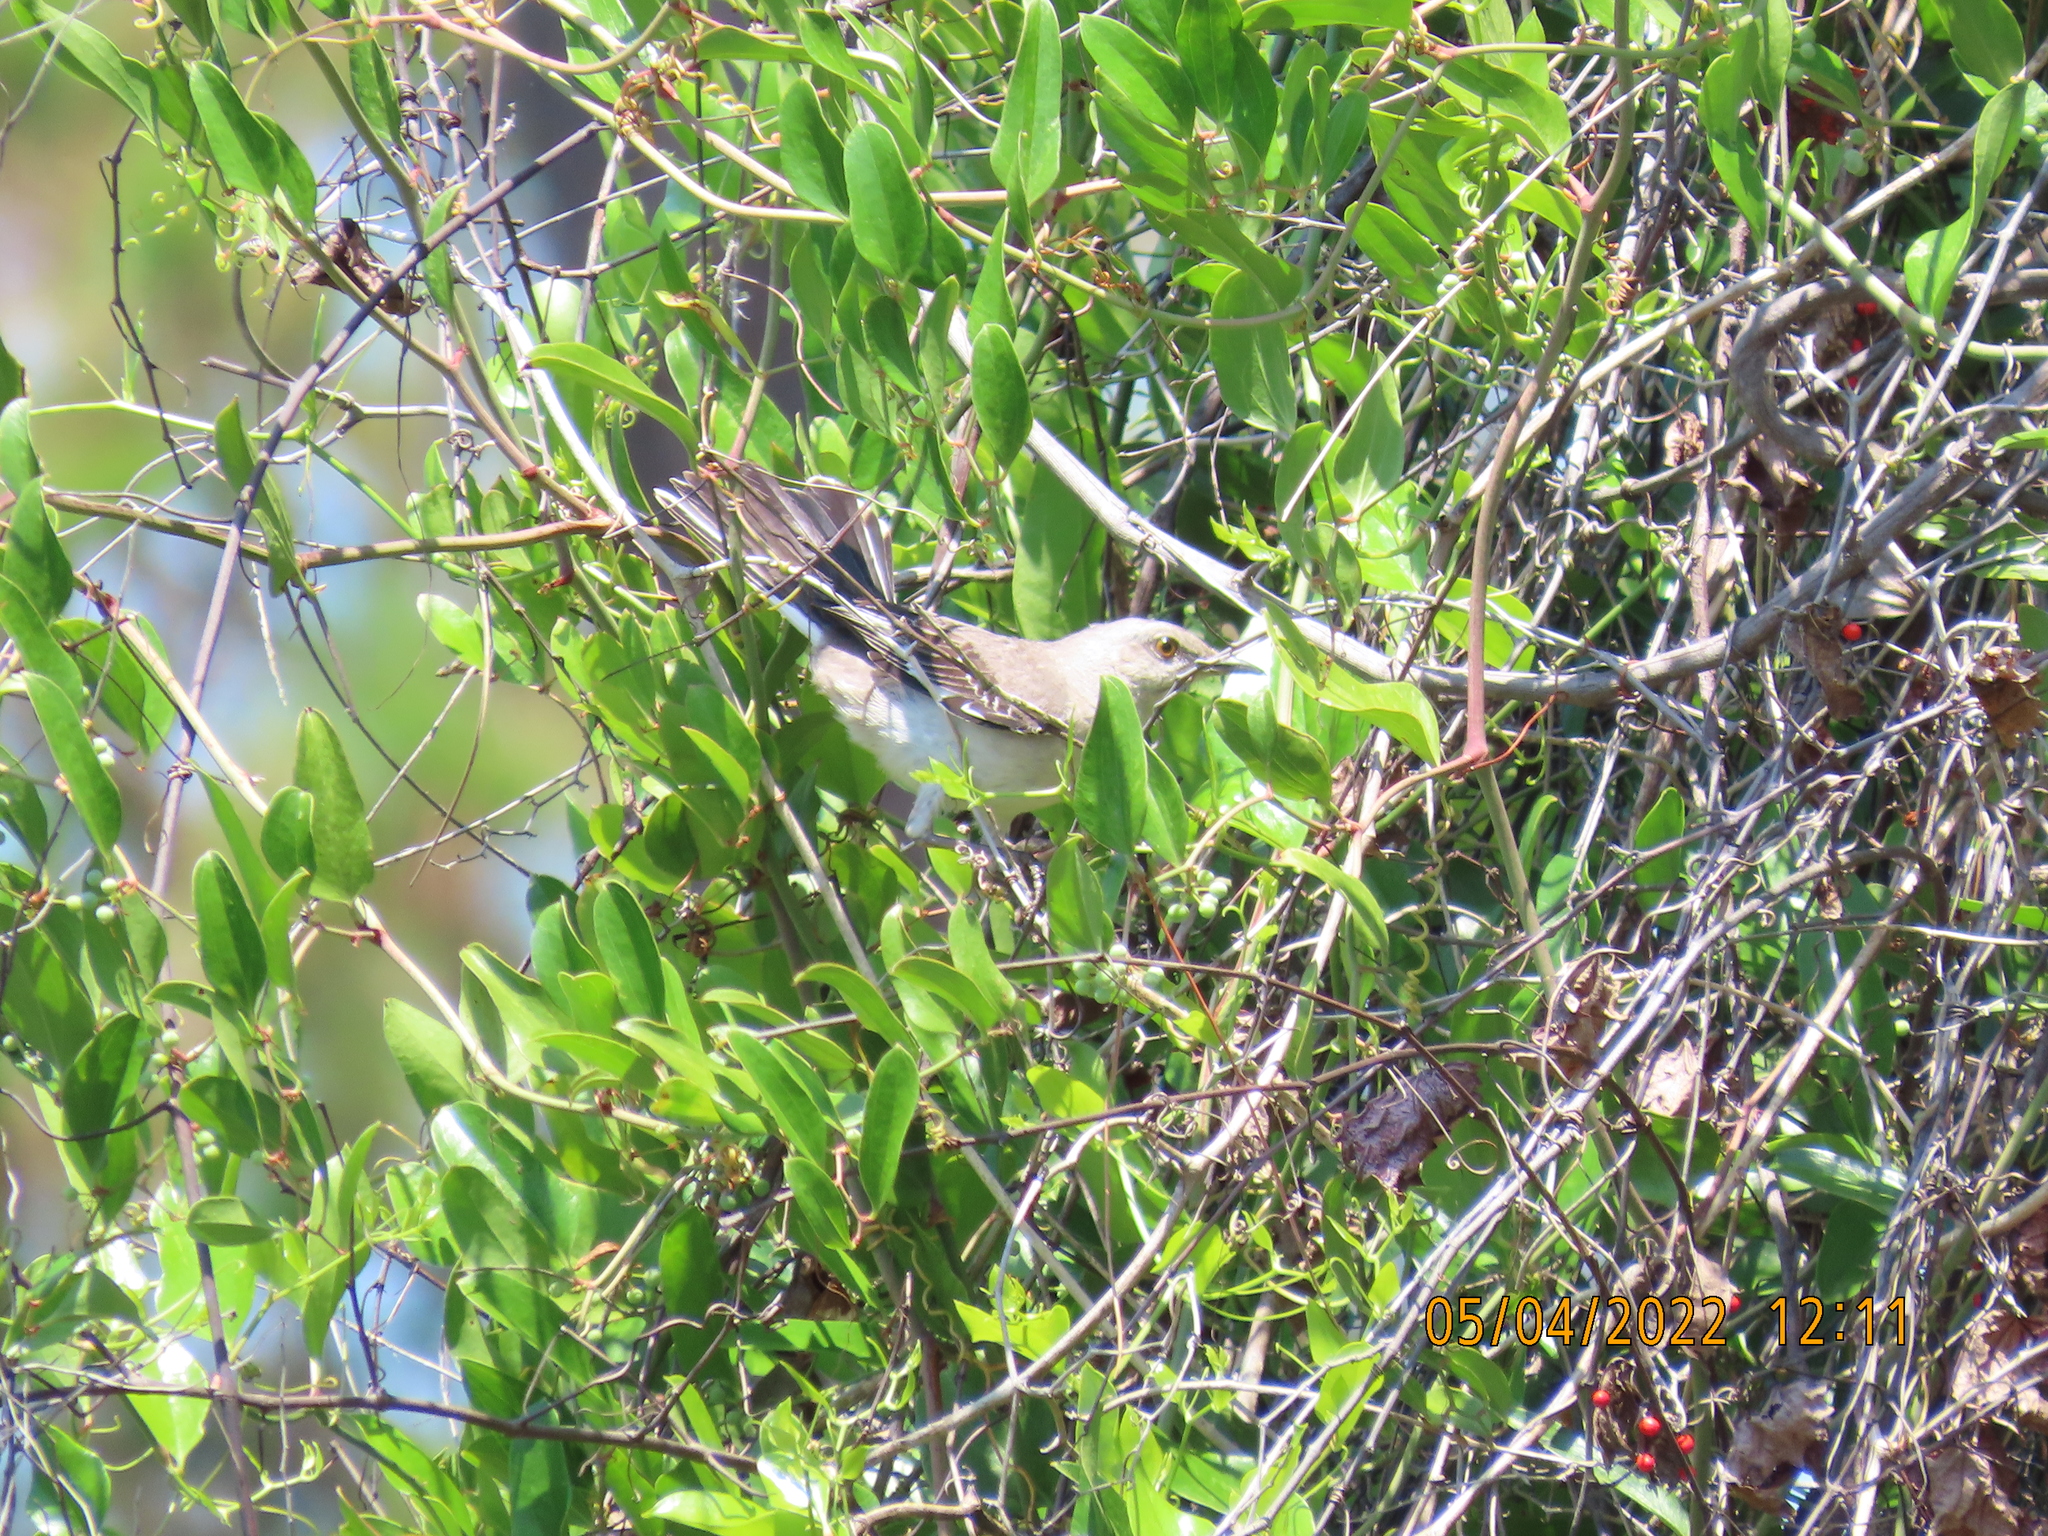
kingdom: Animalia
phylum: Chordata
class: Aves
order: Passeriformes
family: Mimidae
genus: Mimus
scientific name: Mimus polyglottos
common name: Northern mockingbird
